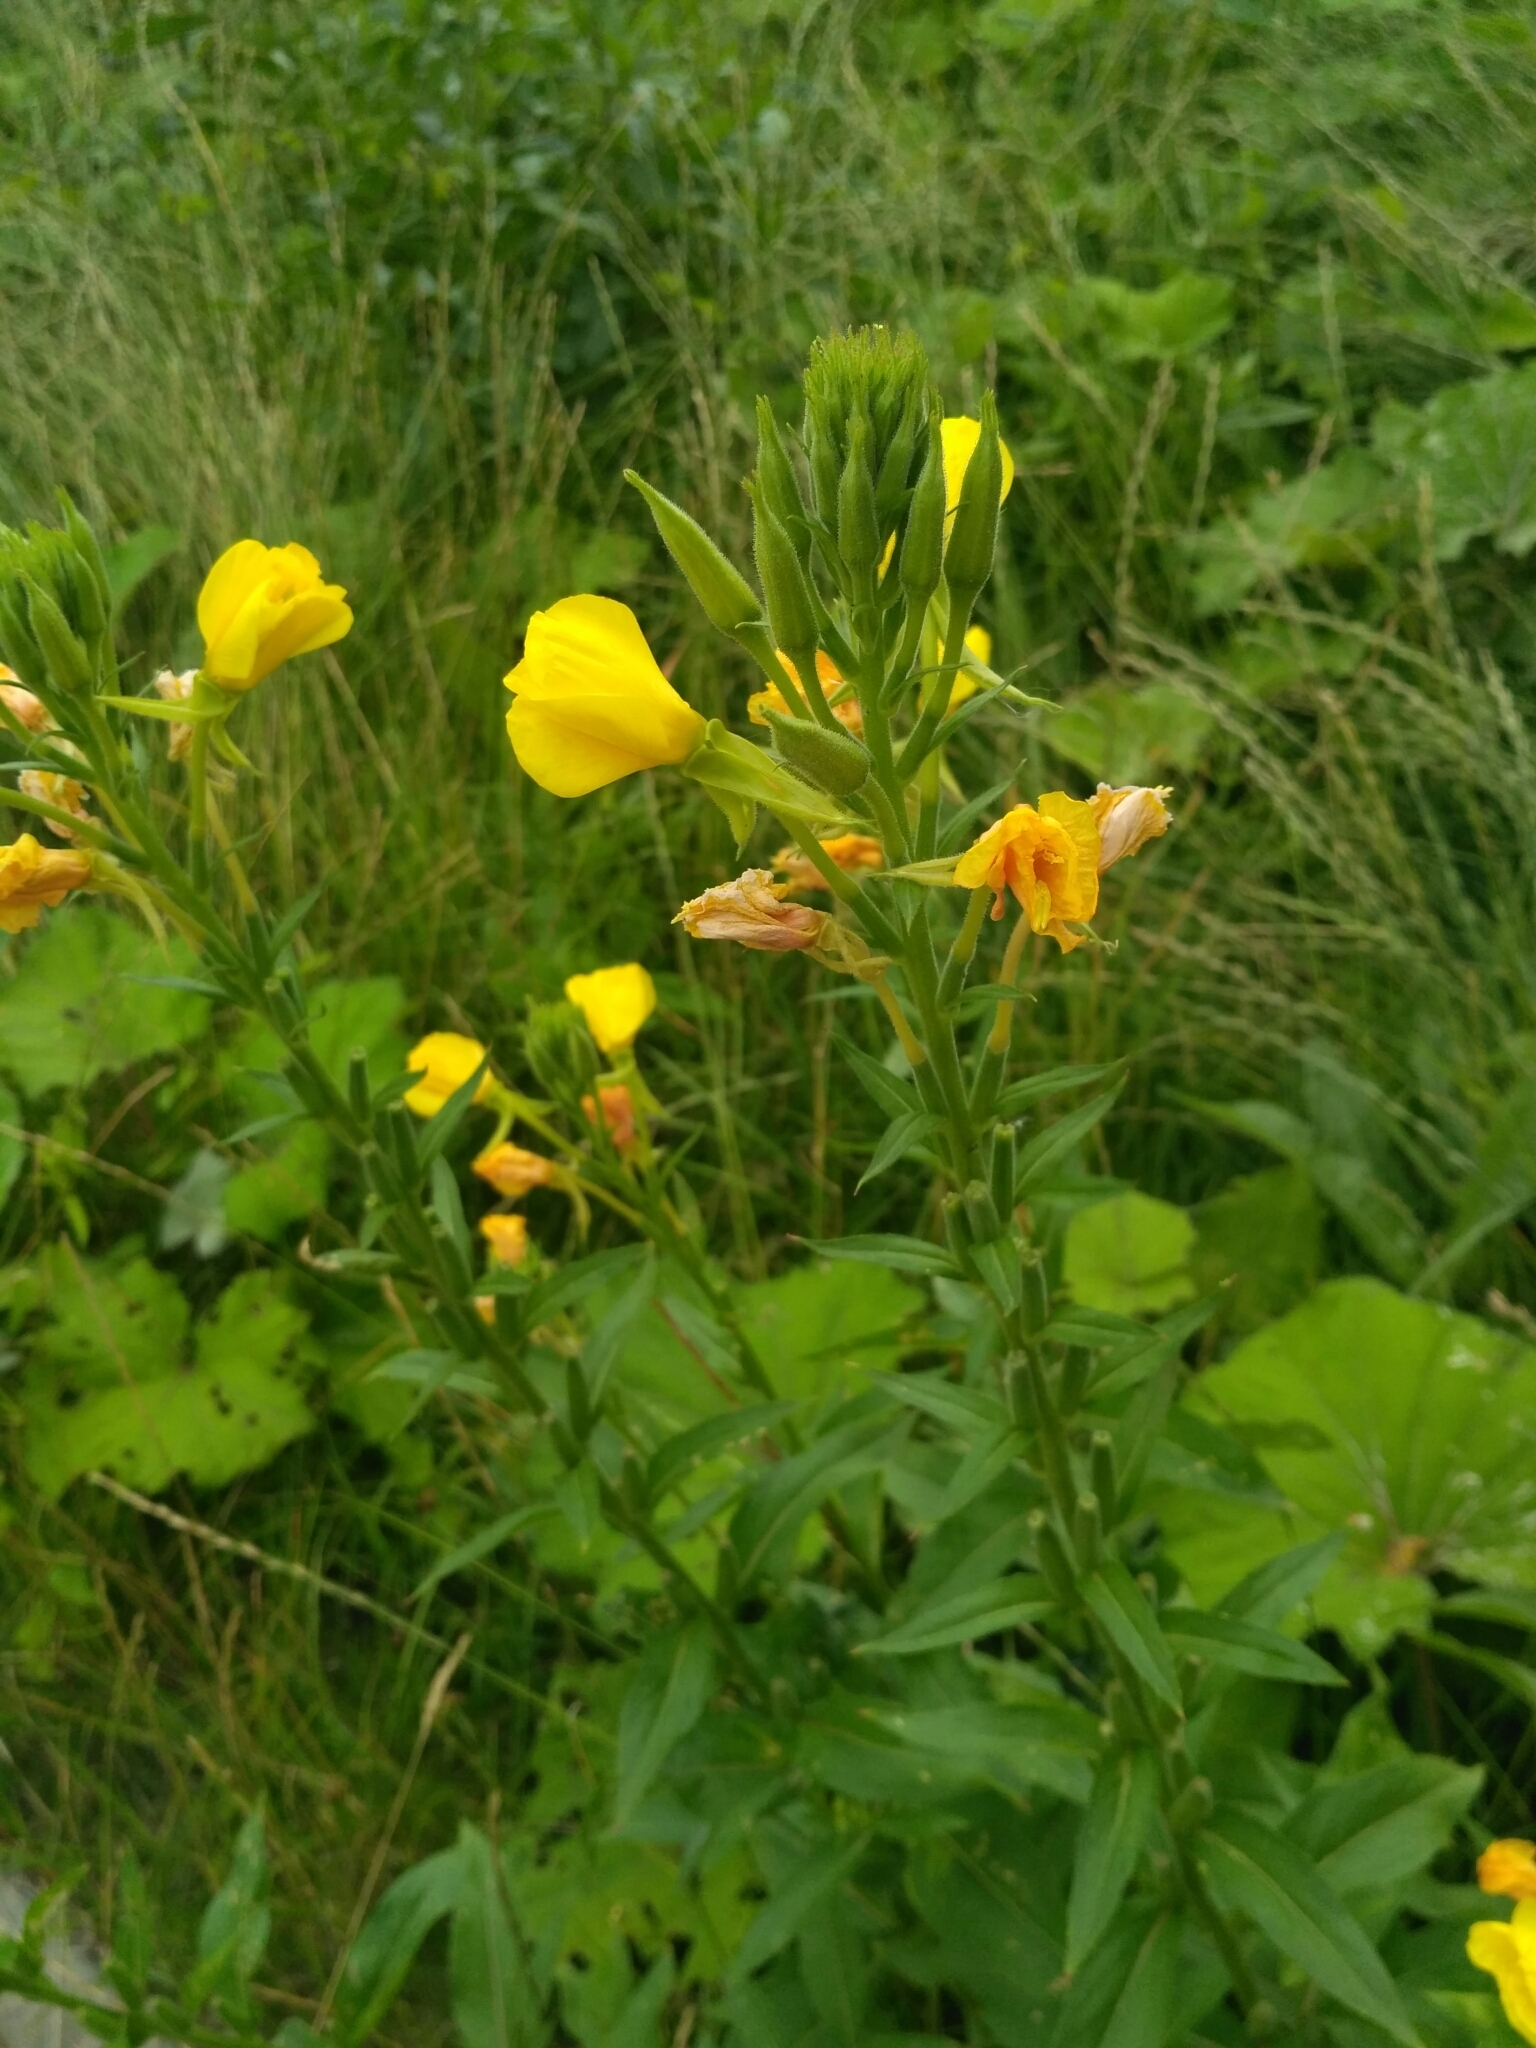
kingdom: Plantae
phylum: Tracheophyta
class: Magnoliopsida
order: Myrtales
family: Onagraceae
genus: Oenothera
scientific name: Oenothera biennis
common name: Common evening-primrose
